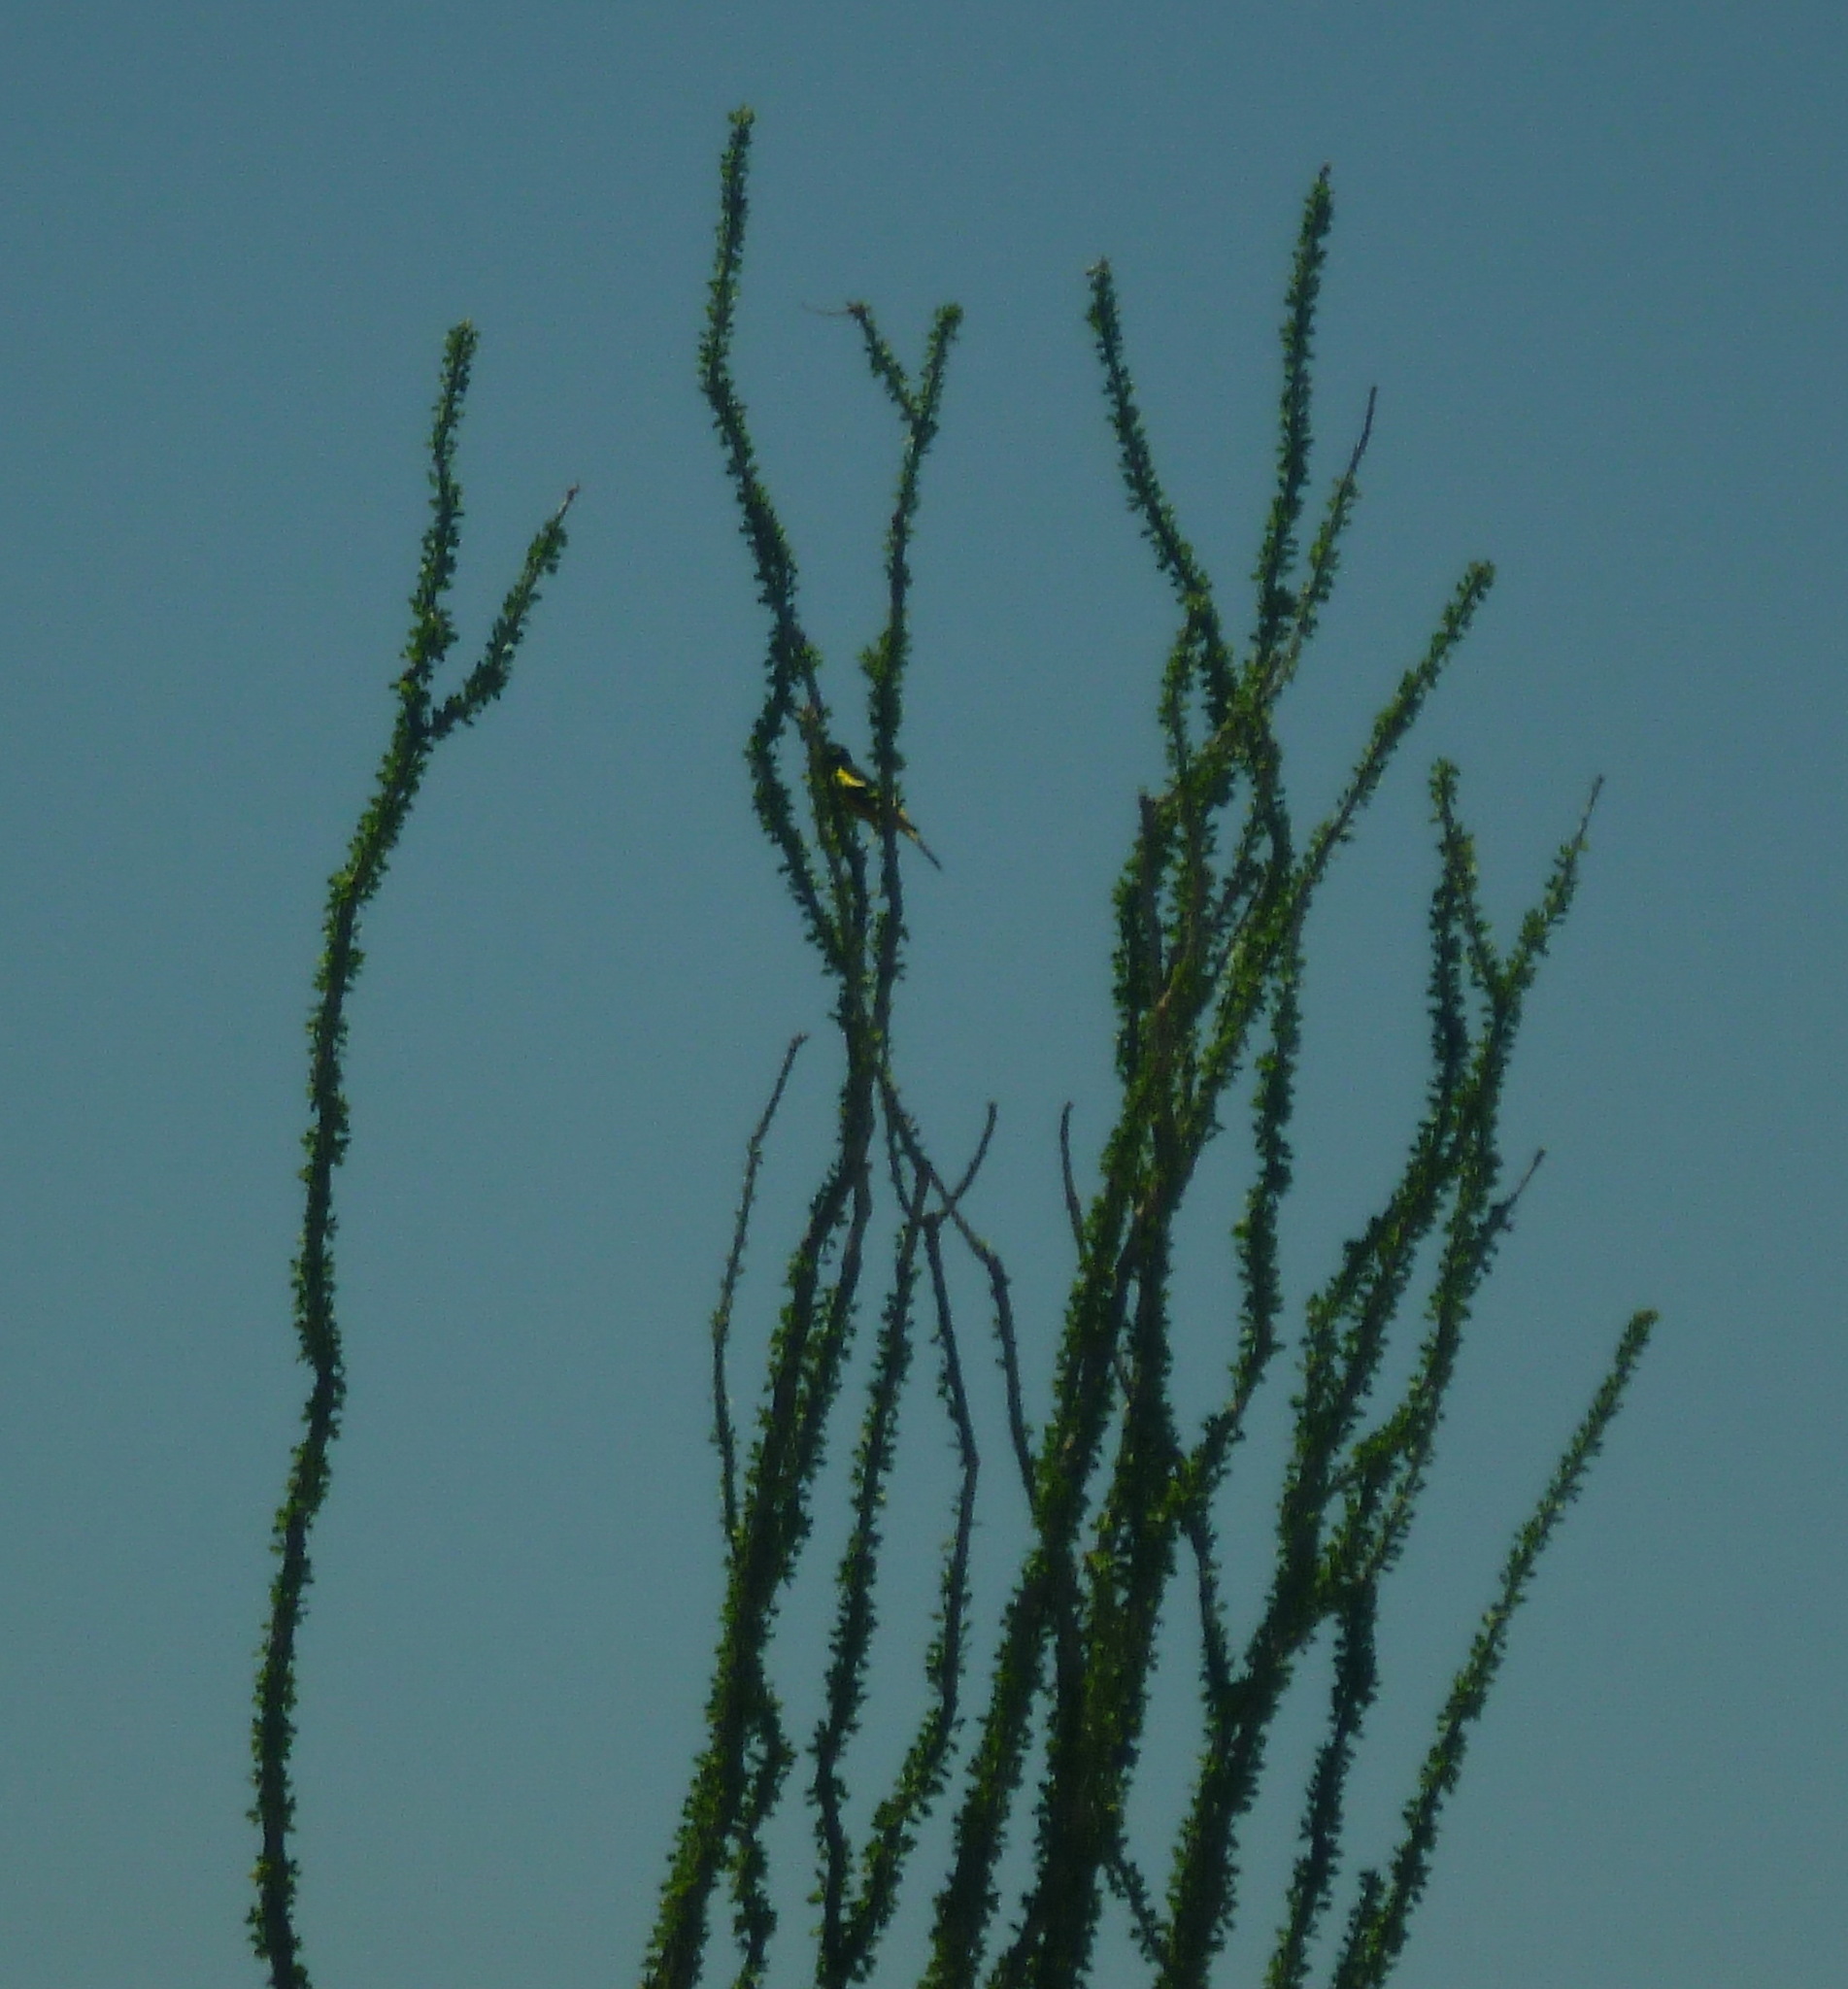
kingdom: Plantae
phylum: Tracheophyta
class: Magnoliopsida
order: Ericales
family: Fouquieriaceae
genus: Fouquieria
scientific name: Fouquieria splendens
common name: Vine-cactus
